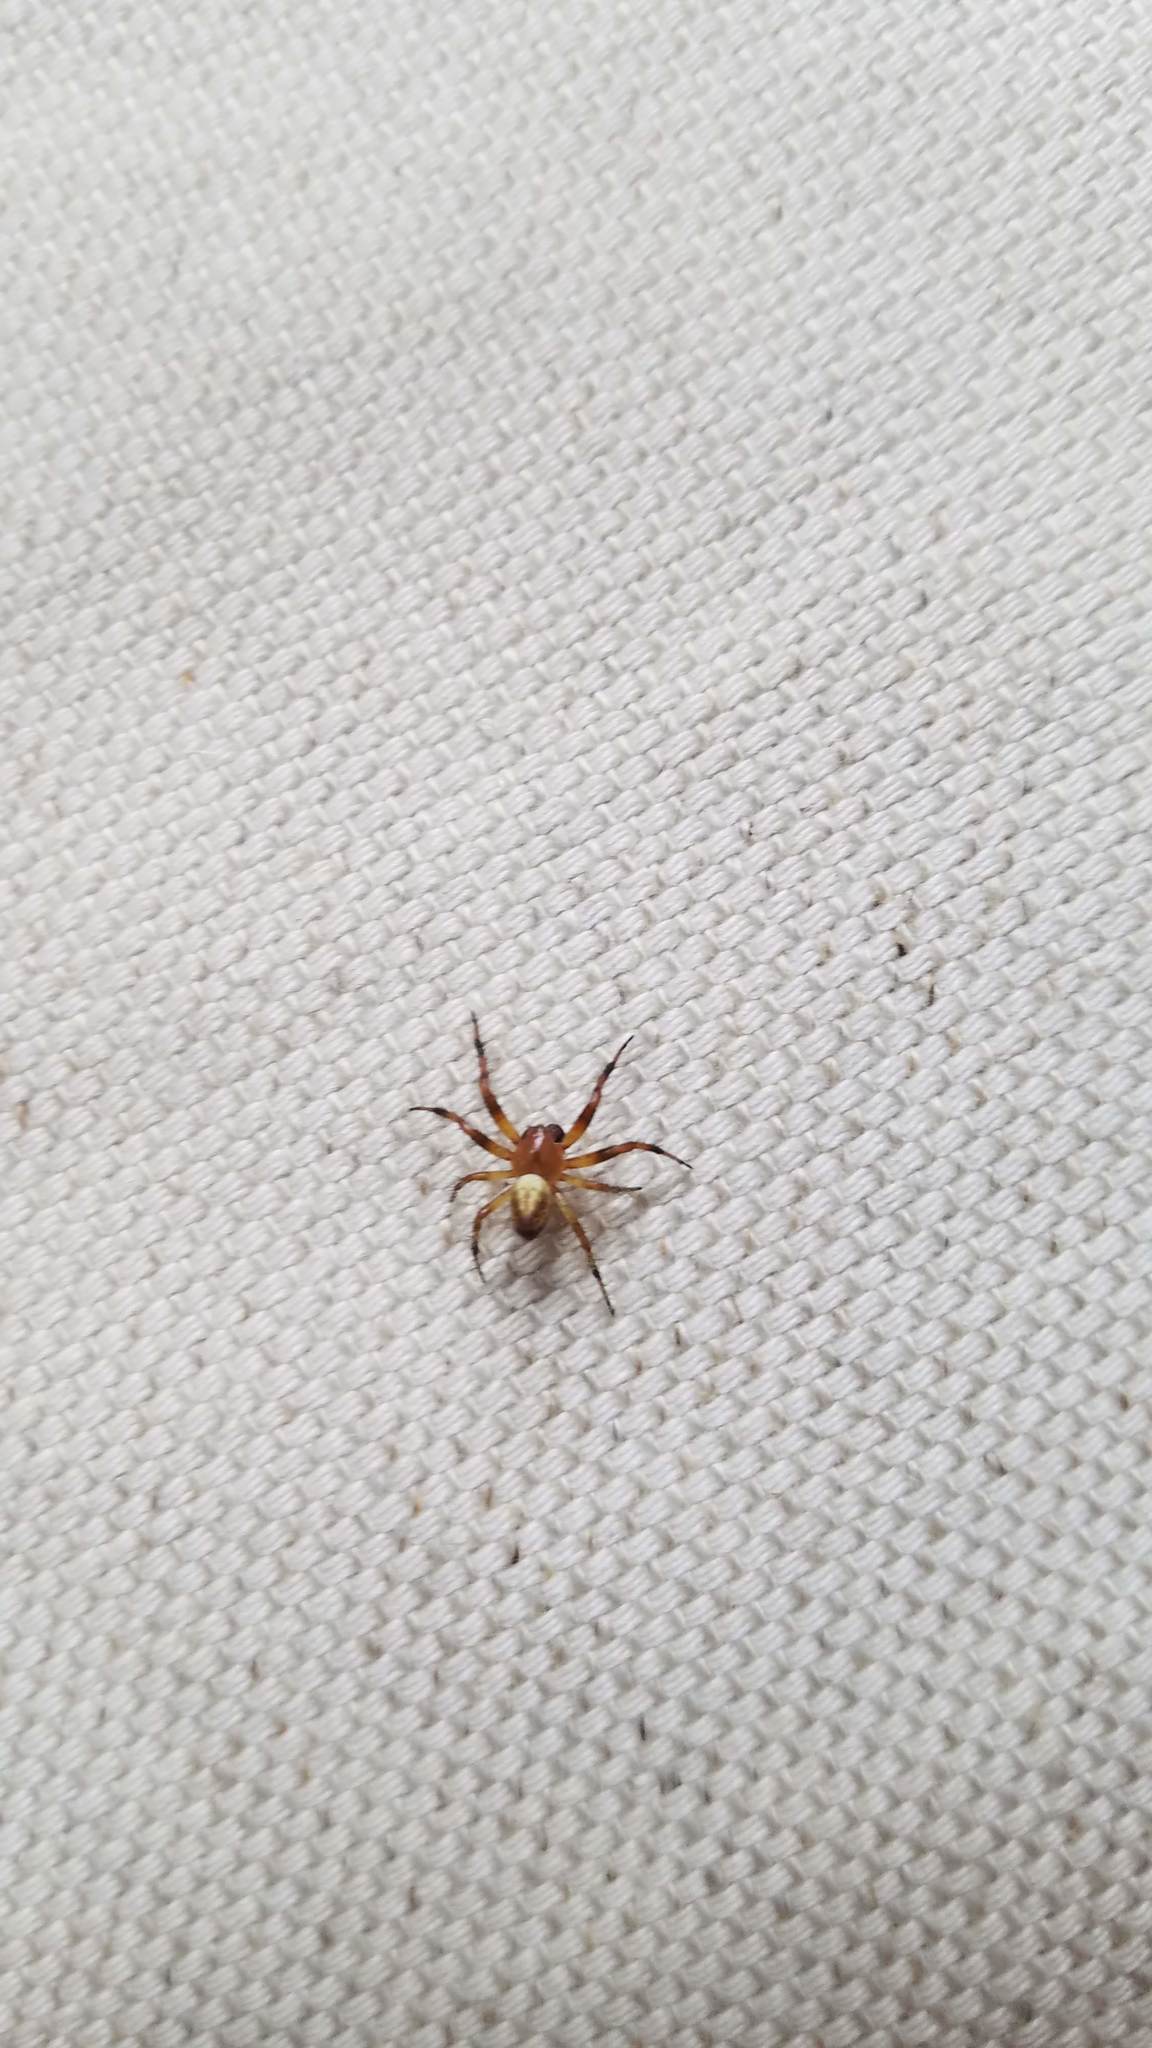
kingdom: Animalia
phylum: Arthropoda
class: Arachnida
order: Araneae
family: Araneidae
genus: Araniella
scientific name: Araniella displicata
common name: Sixspotted orb weaver
